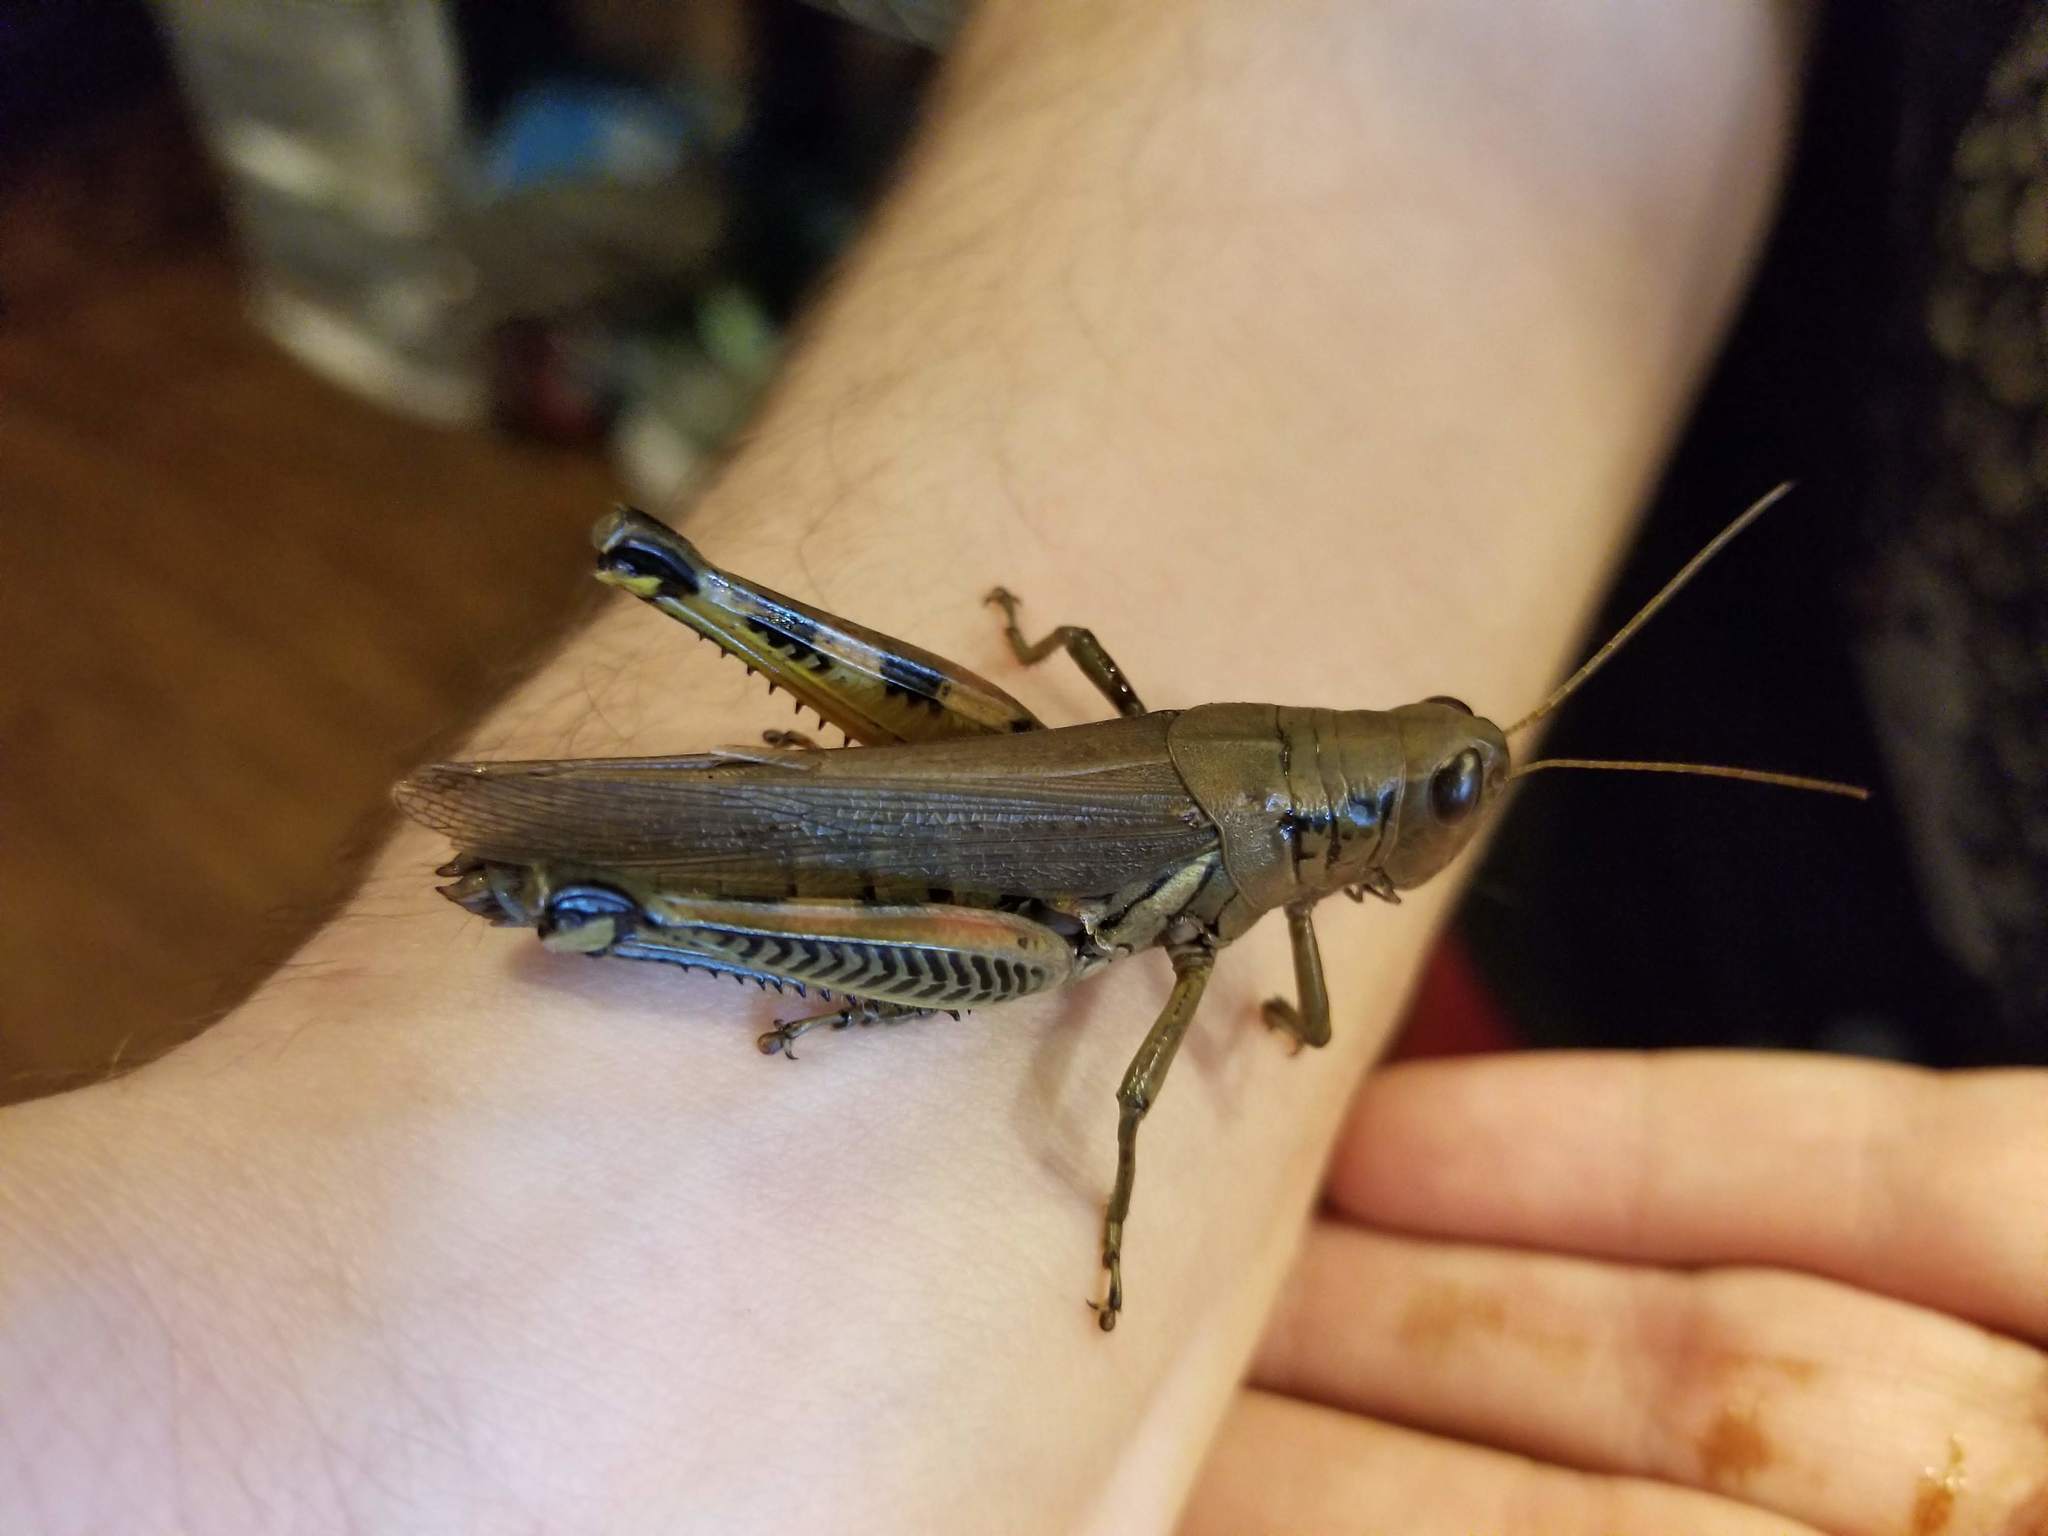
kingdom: Animalia
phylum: Arthropoda
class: Insecta
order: Orthoptera
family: Acrididae
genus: Melanoplus
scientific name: Melanoplus differentialis
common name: Differential grasshopper
